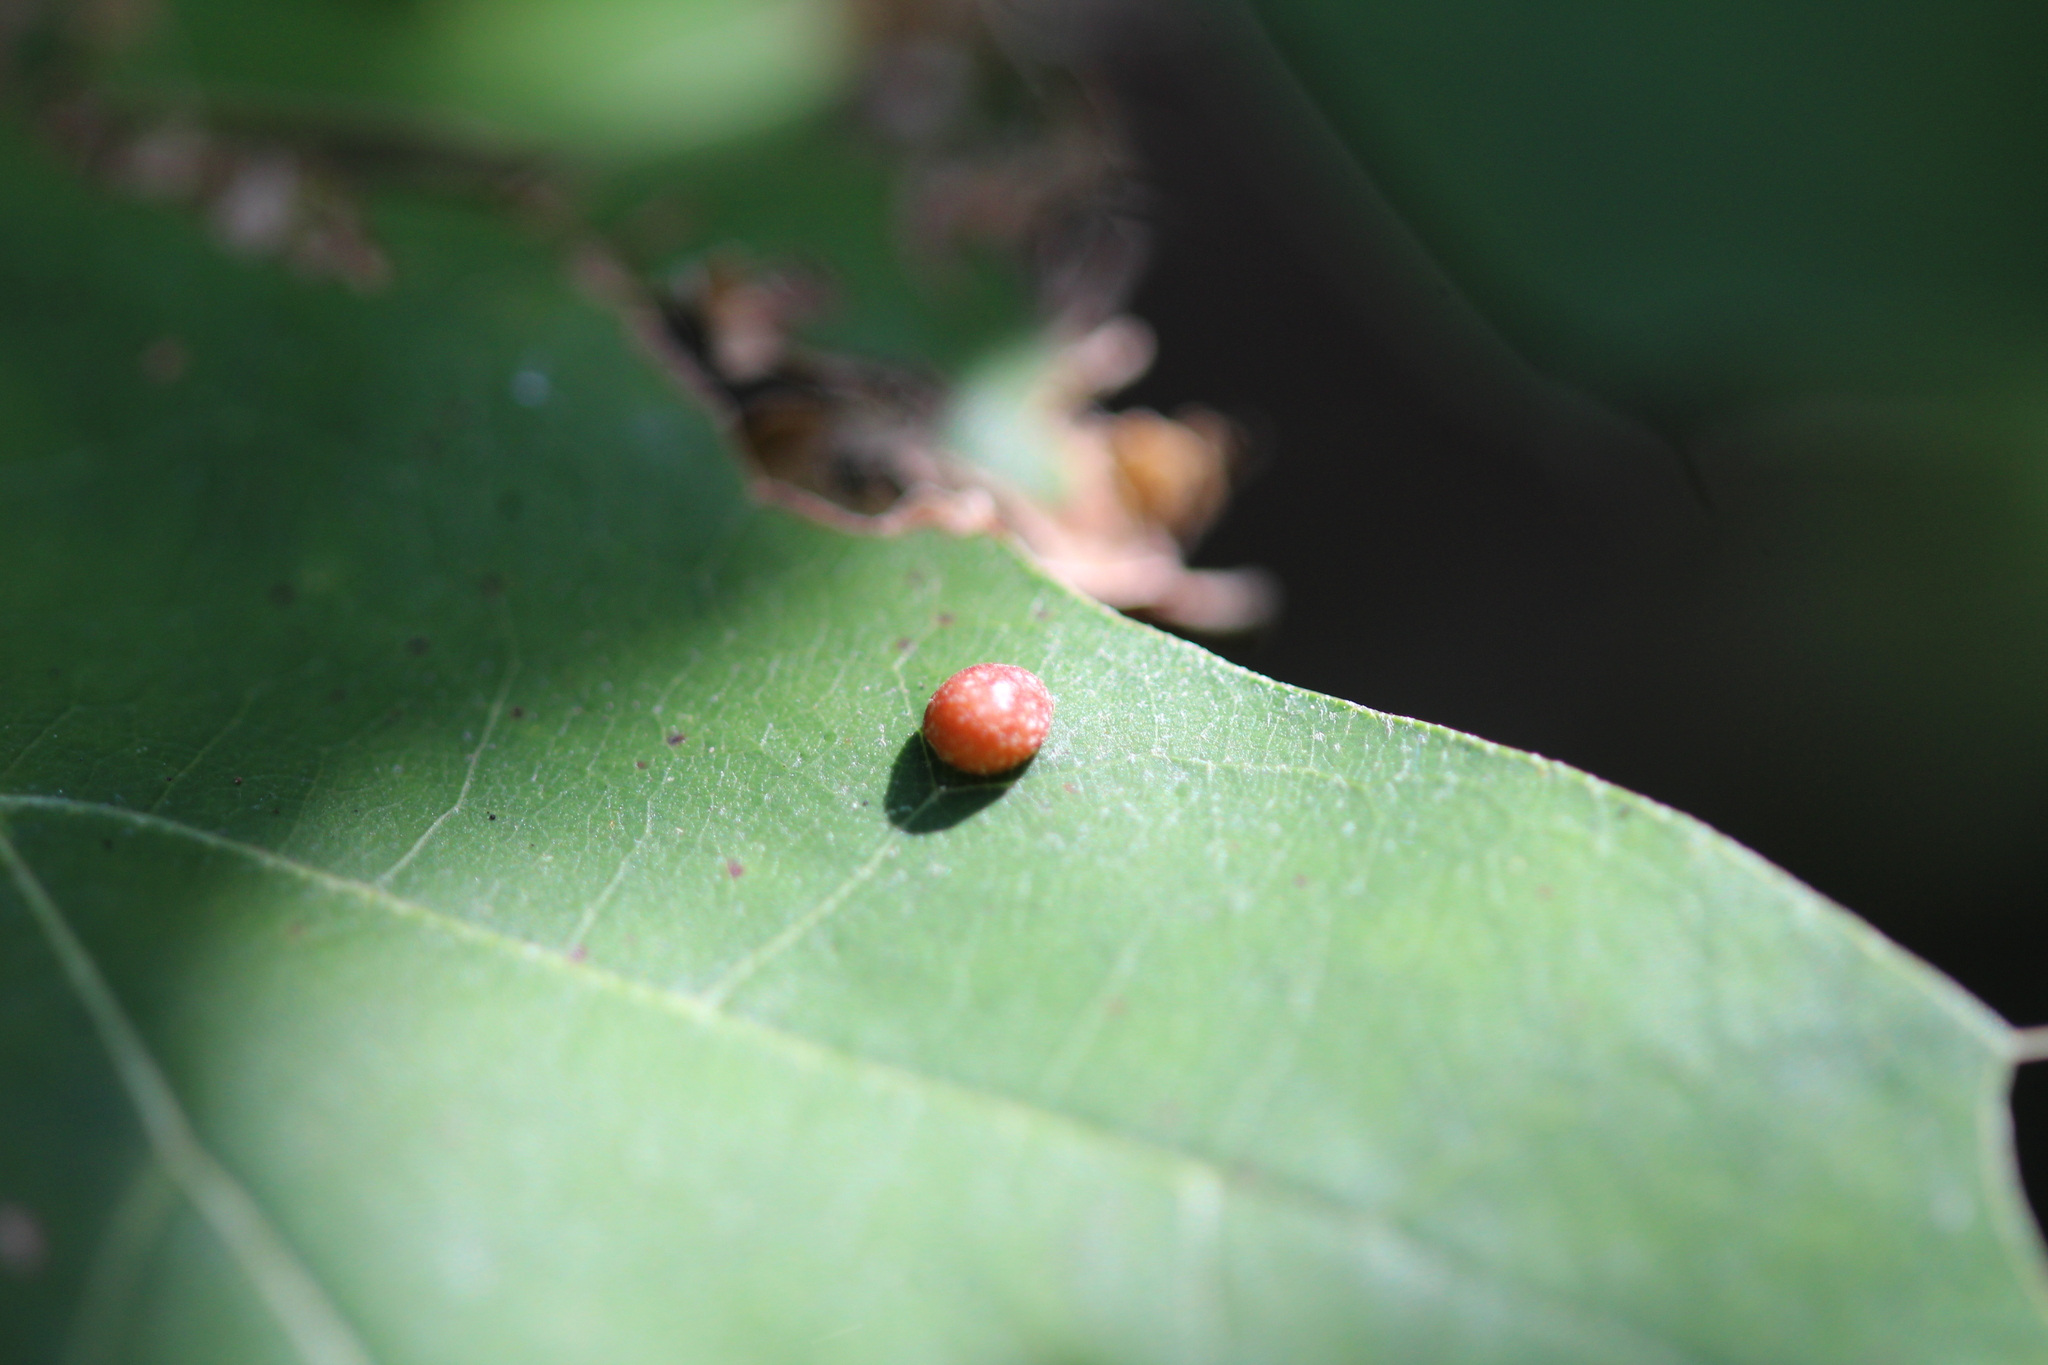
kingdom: Animalia
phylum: Arthropoda
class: Insecta
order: Diptera
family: Cecidomyiidae
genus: Polystepha
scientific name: Polystepha pilulae
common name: Oak leaf gall midge
